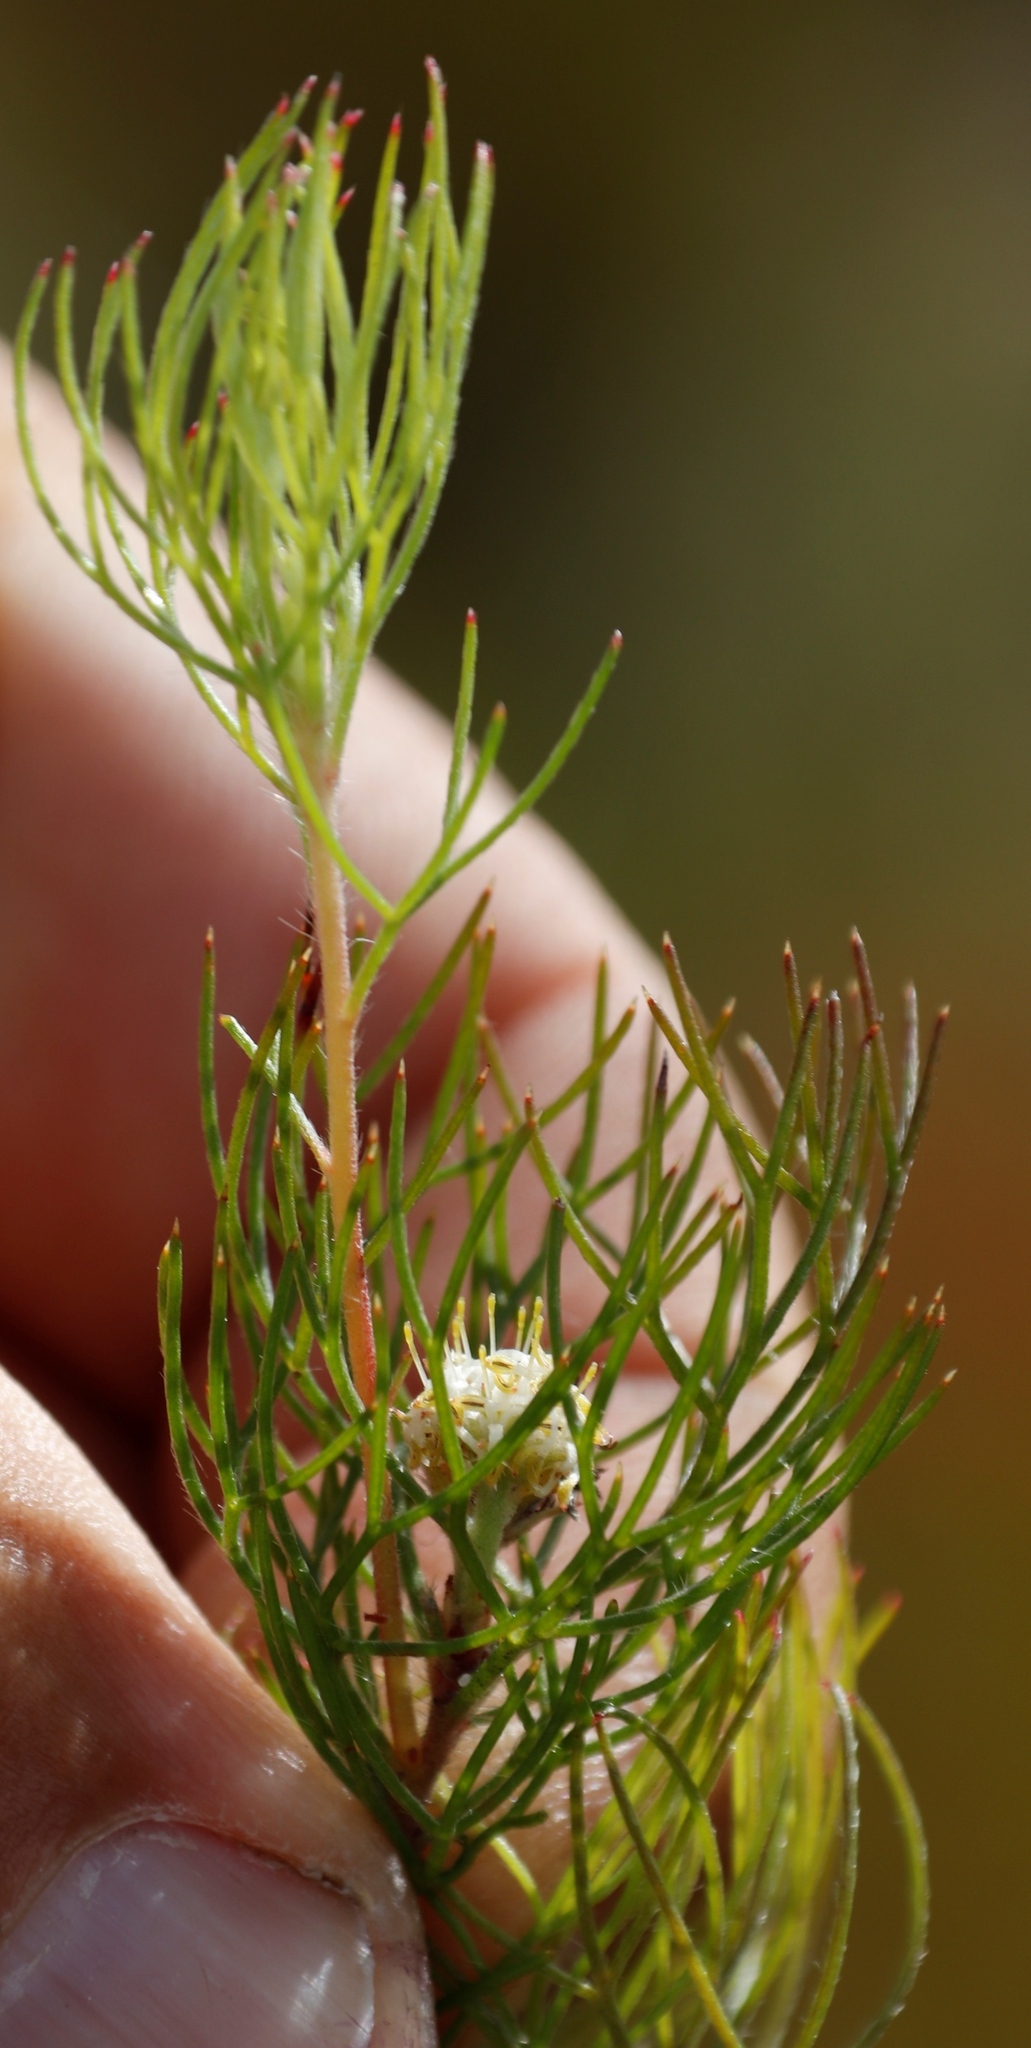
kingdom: Plantae
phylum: Tracheophyta
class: Magnoliopsida
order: Proteales
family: Proteaceae
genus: Serruria
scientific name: Serruria inconspicua
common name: Cryptic spiderhead
